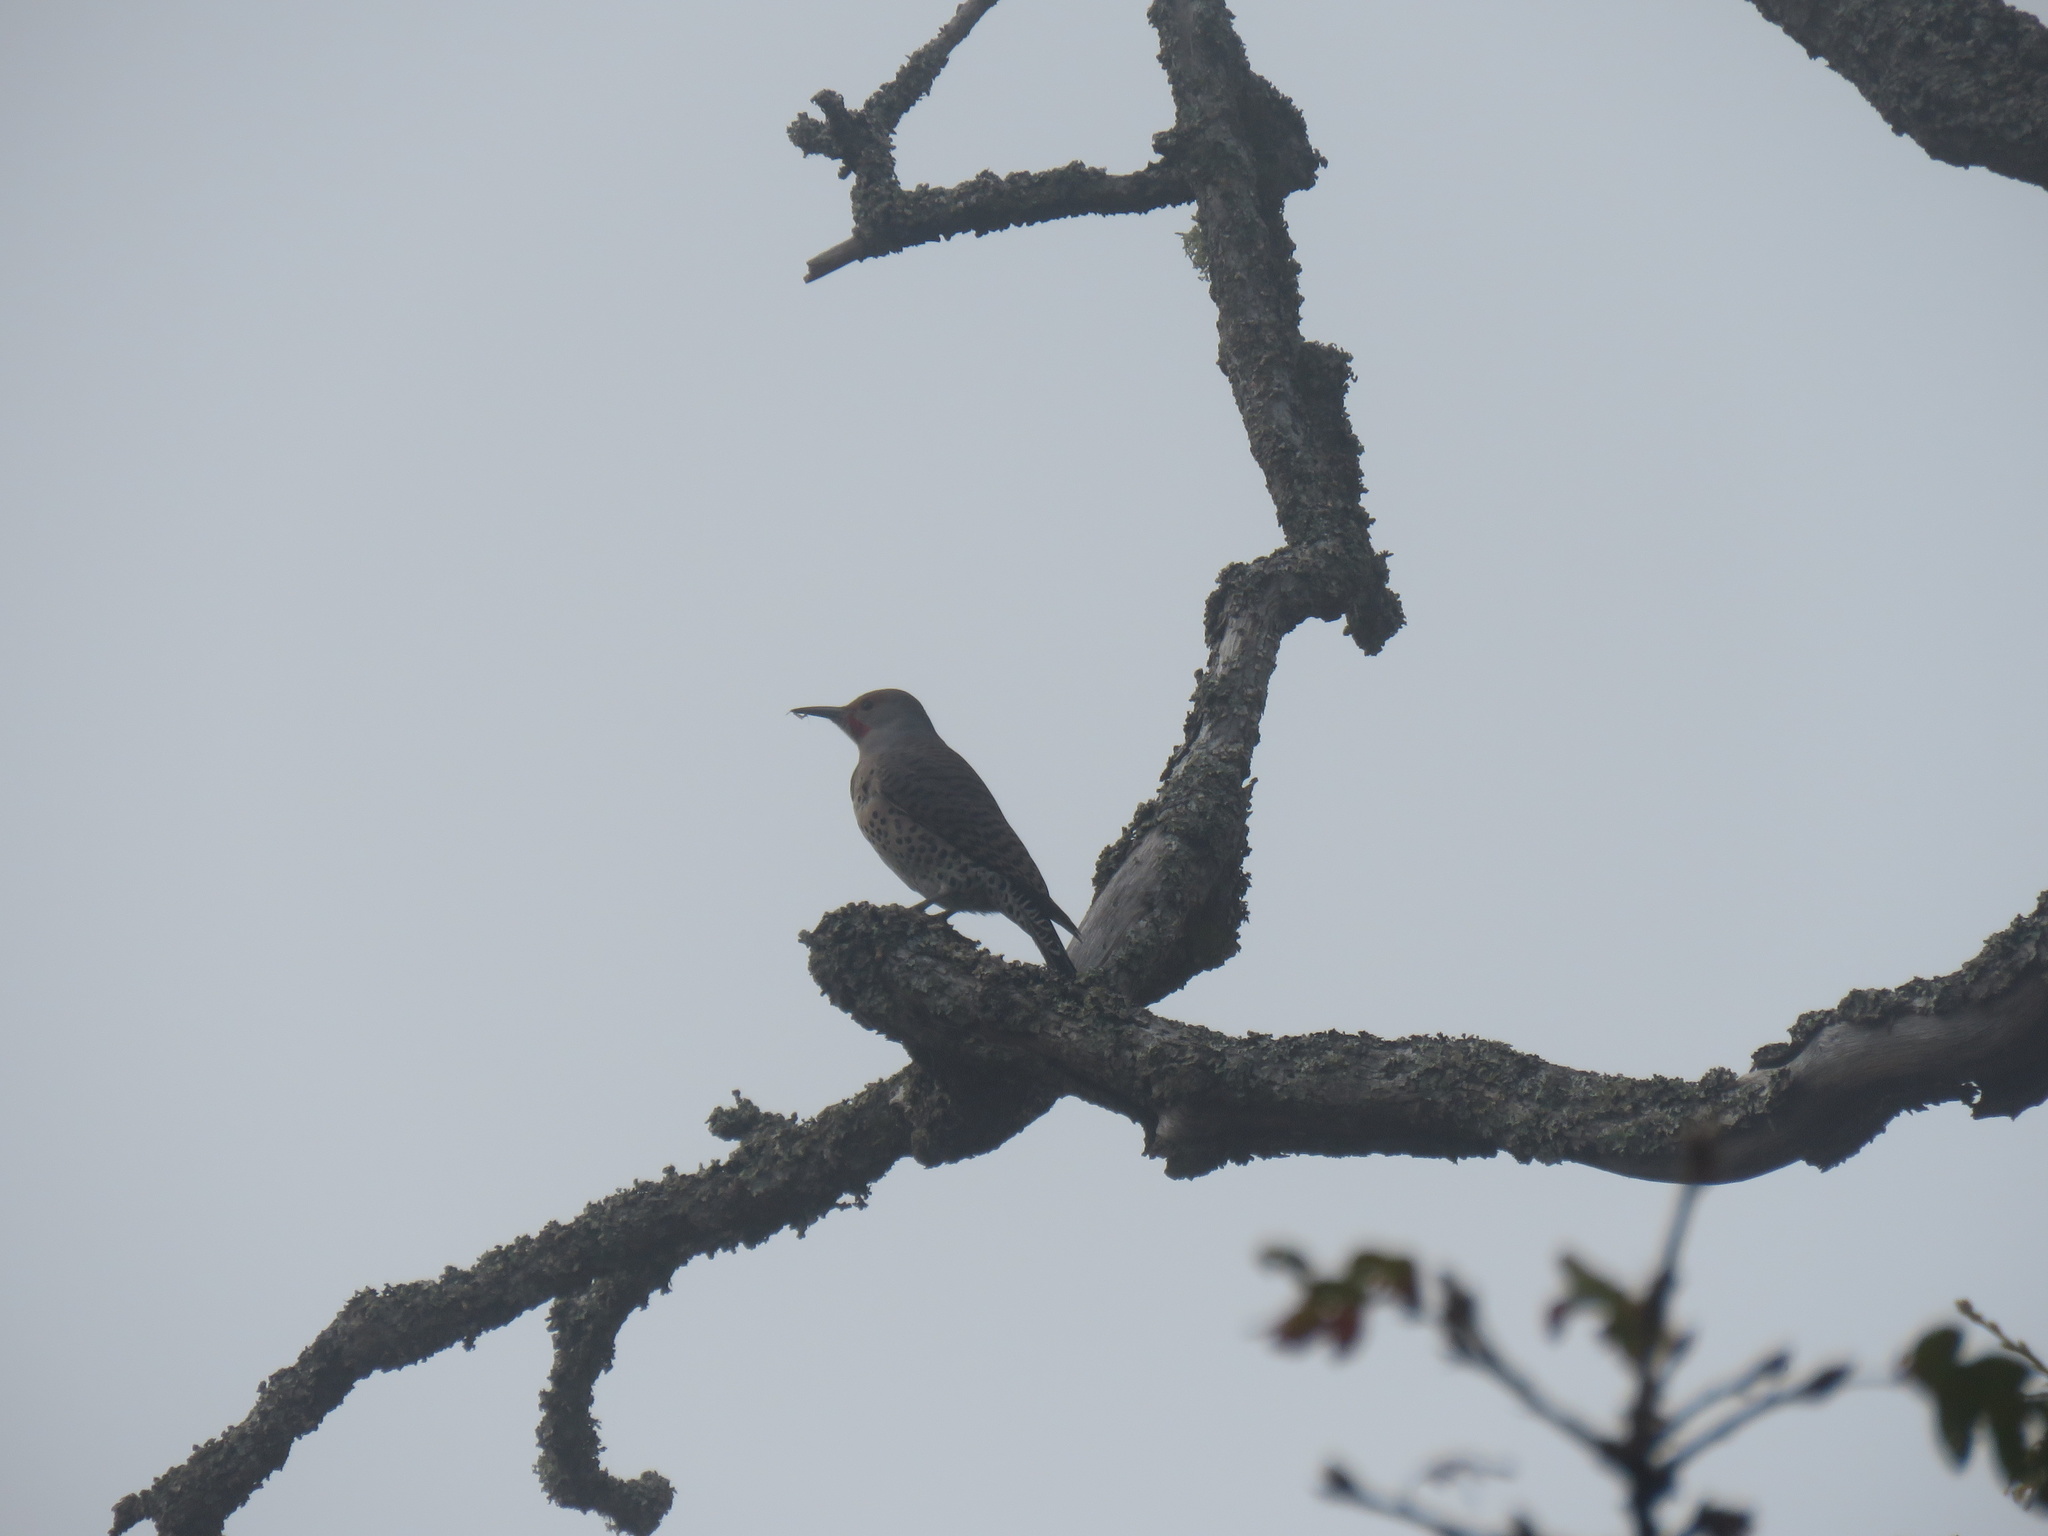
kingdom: Animalia
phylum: Chordata
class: Aves
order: Piciformes
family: Picidae
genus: Colaptes
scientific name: Colaptes auratus
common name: Northern flicker
